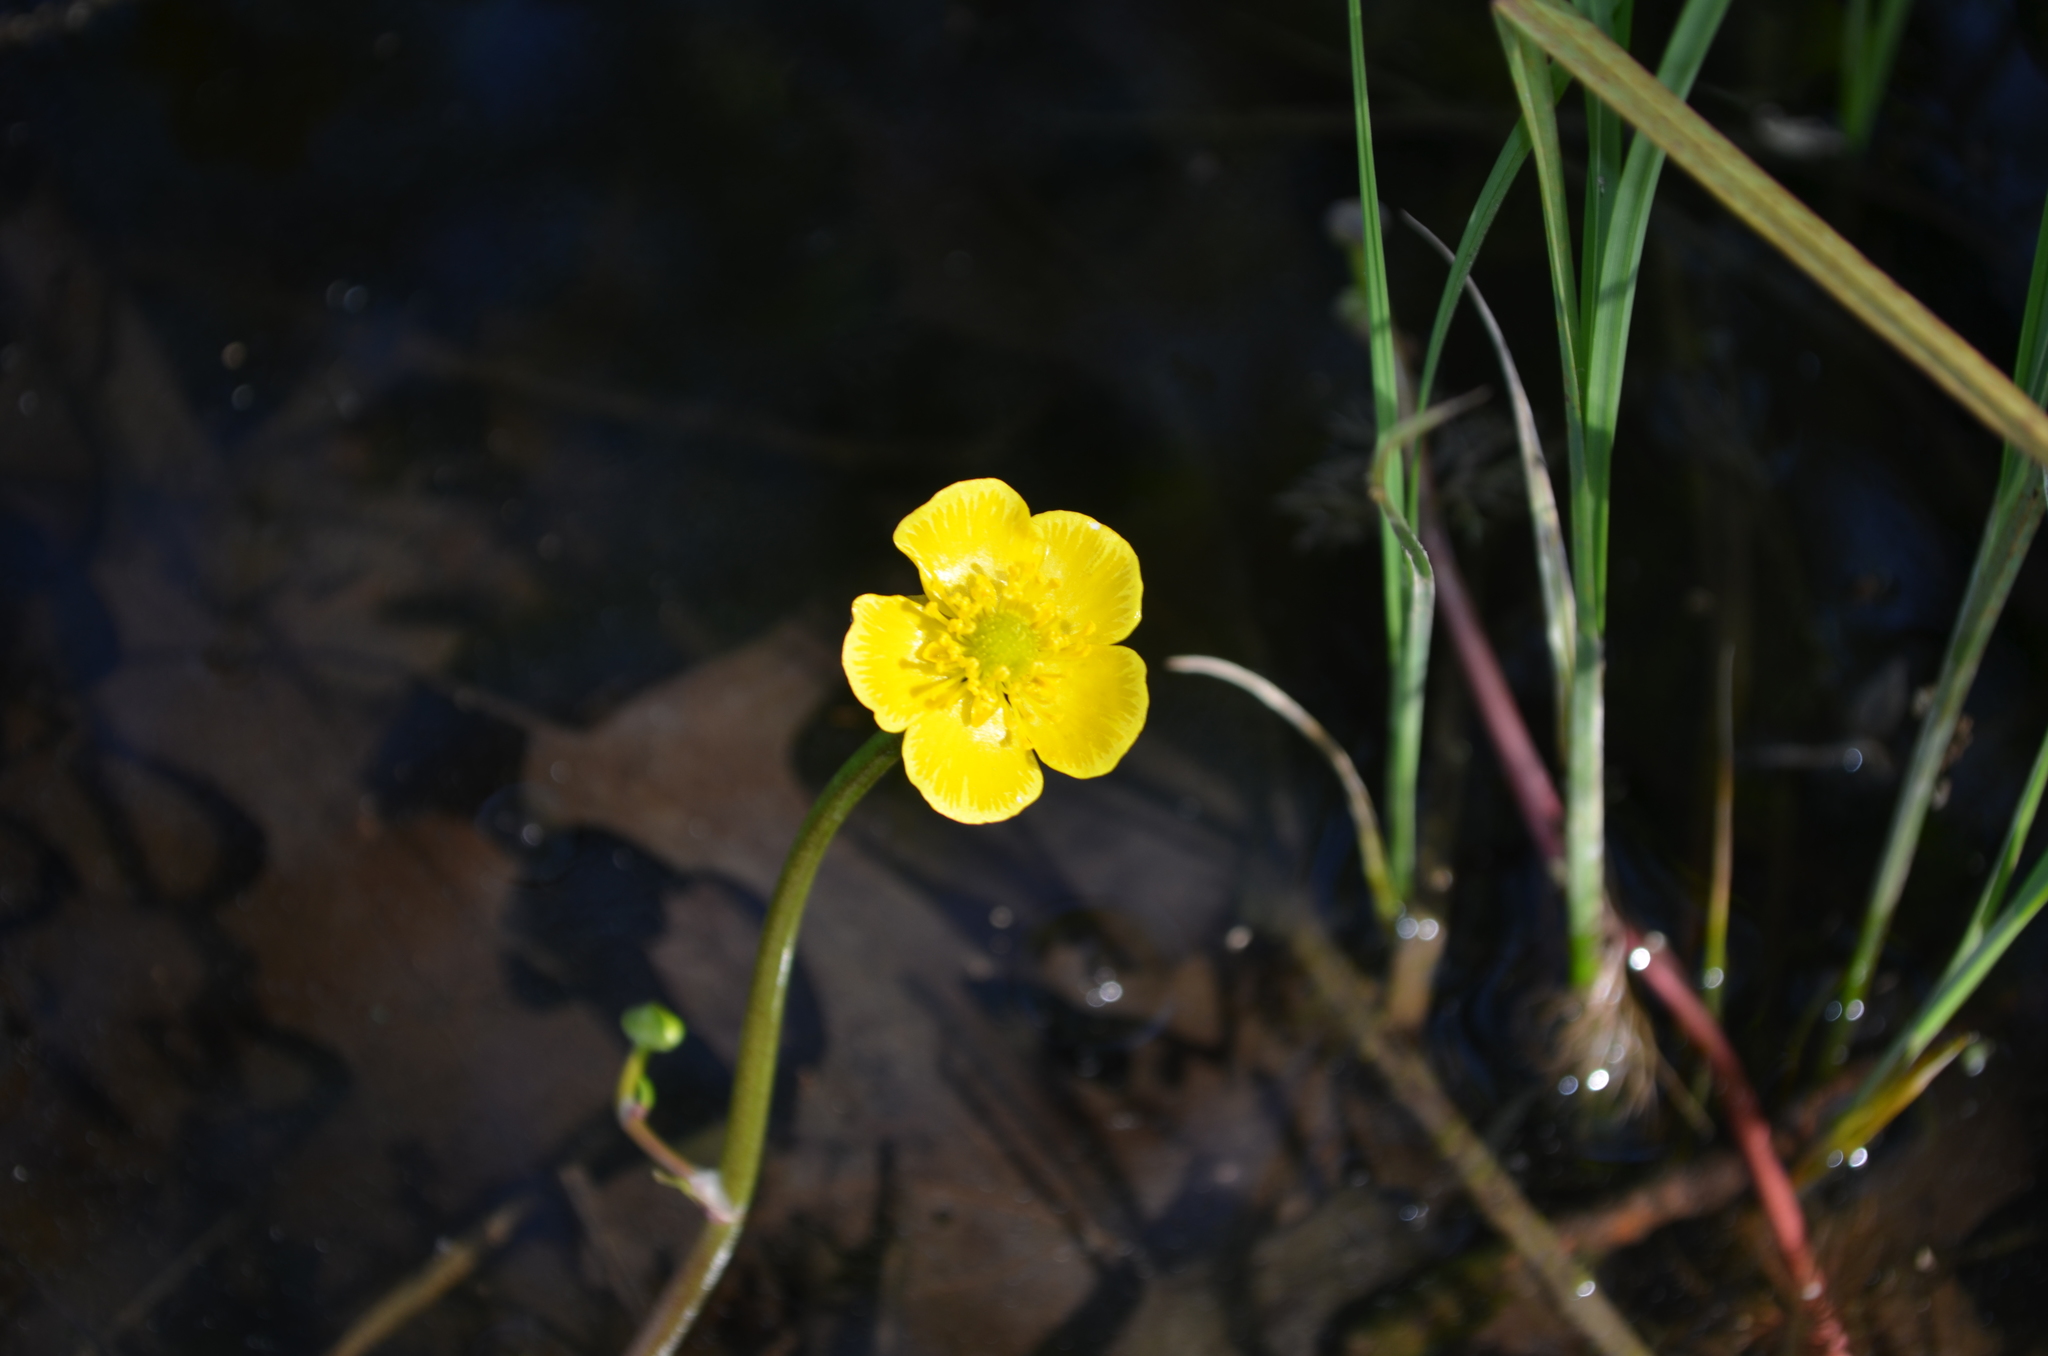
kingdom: Plantae
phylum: Tracheophyta
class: Magnoliopsida
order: Ranunculales
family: Ranunculaceae
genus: Ranunculus
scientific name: Ranunculus flabellaris
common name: Yellow water-crowfoot
